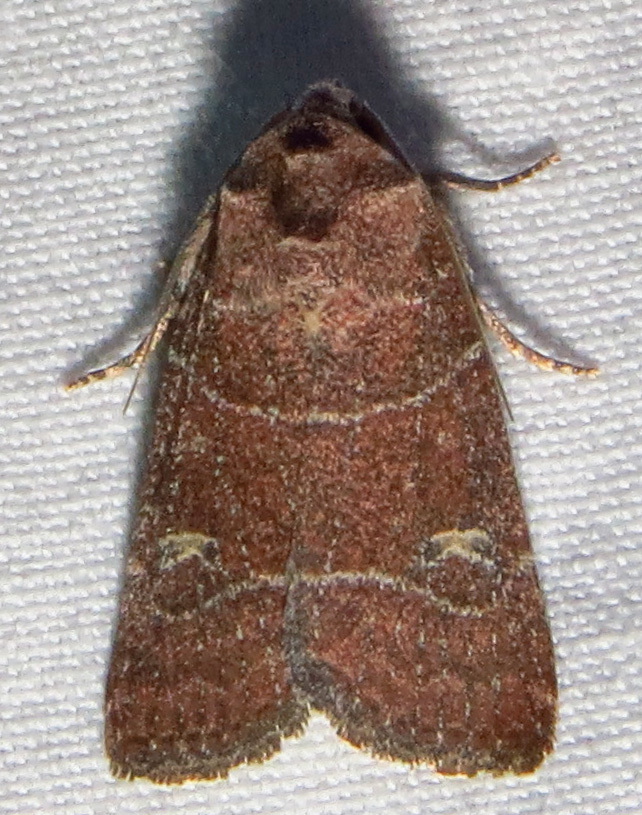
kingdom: Animalia
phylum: Arthropoda
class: Insecta
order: Lepidoptera
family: Noctuidae
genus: Elaphria
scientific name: Elaphria grata
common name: Grateful midget moth
